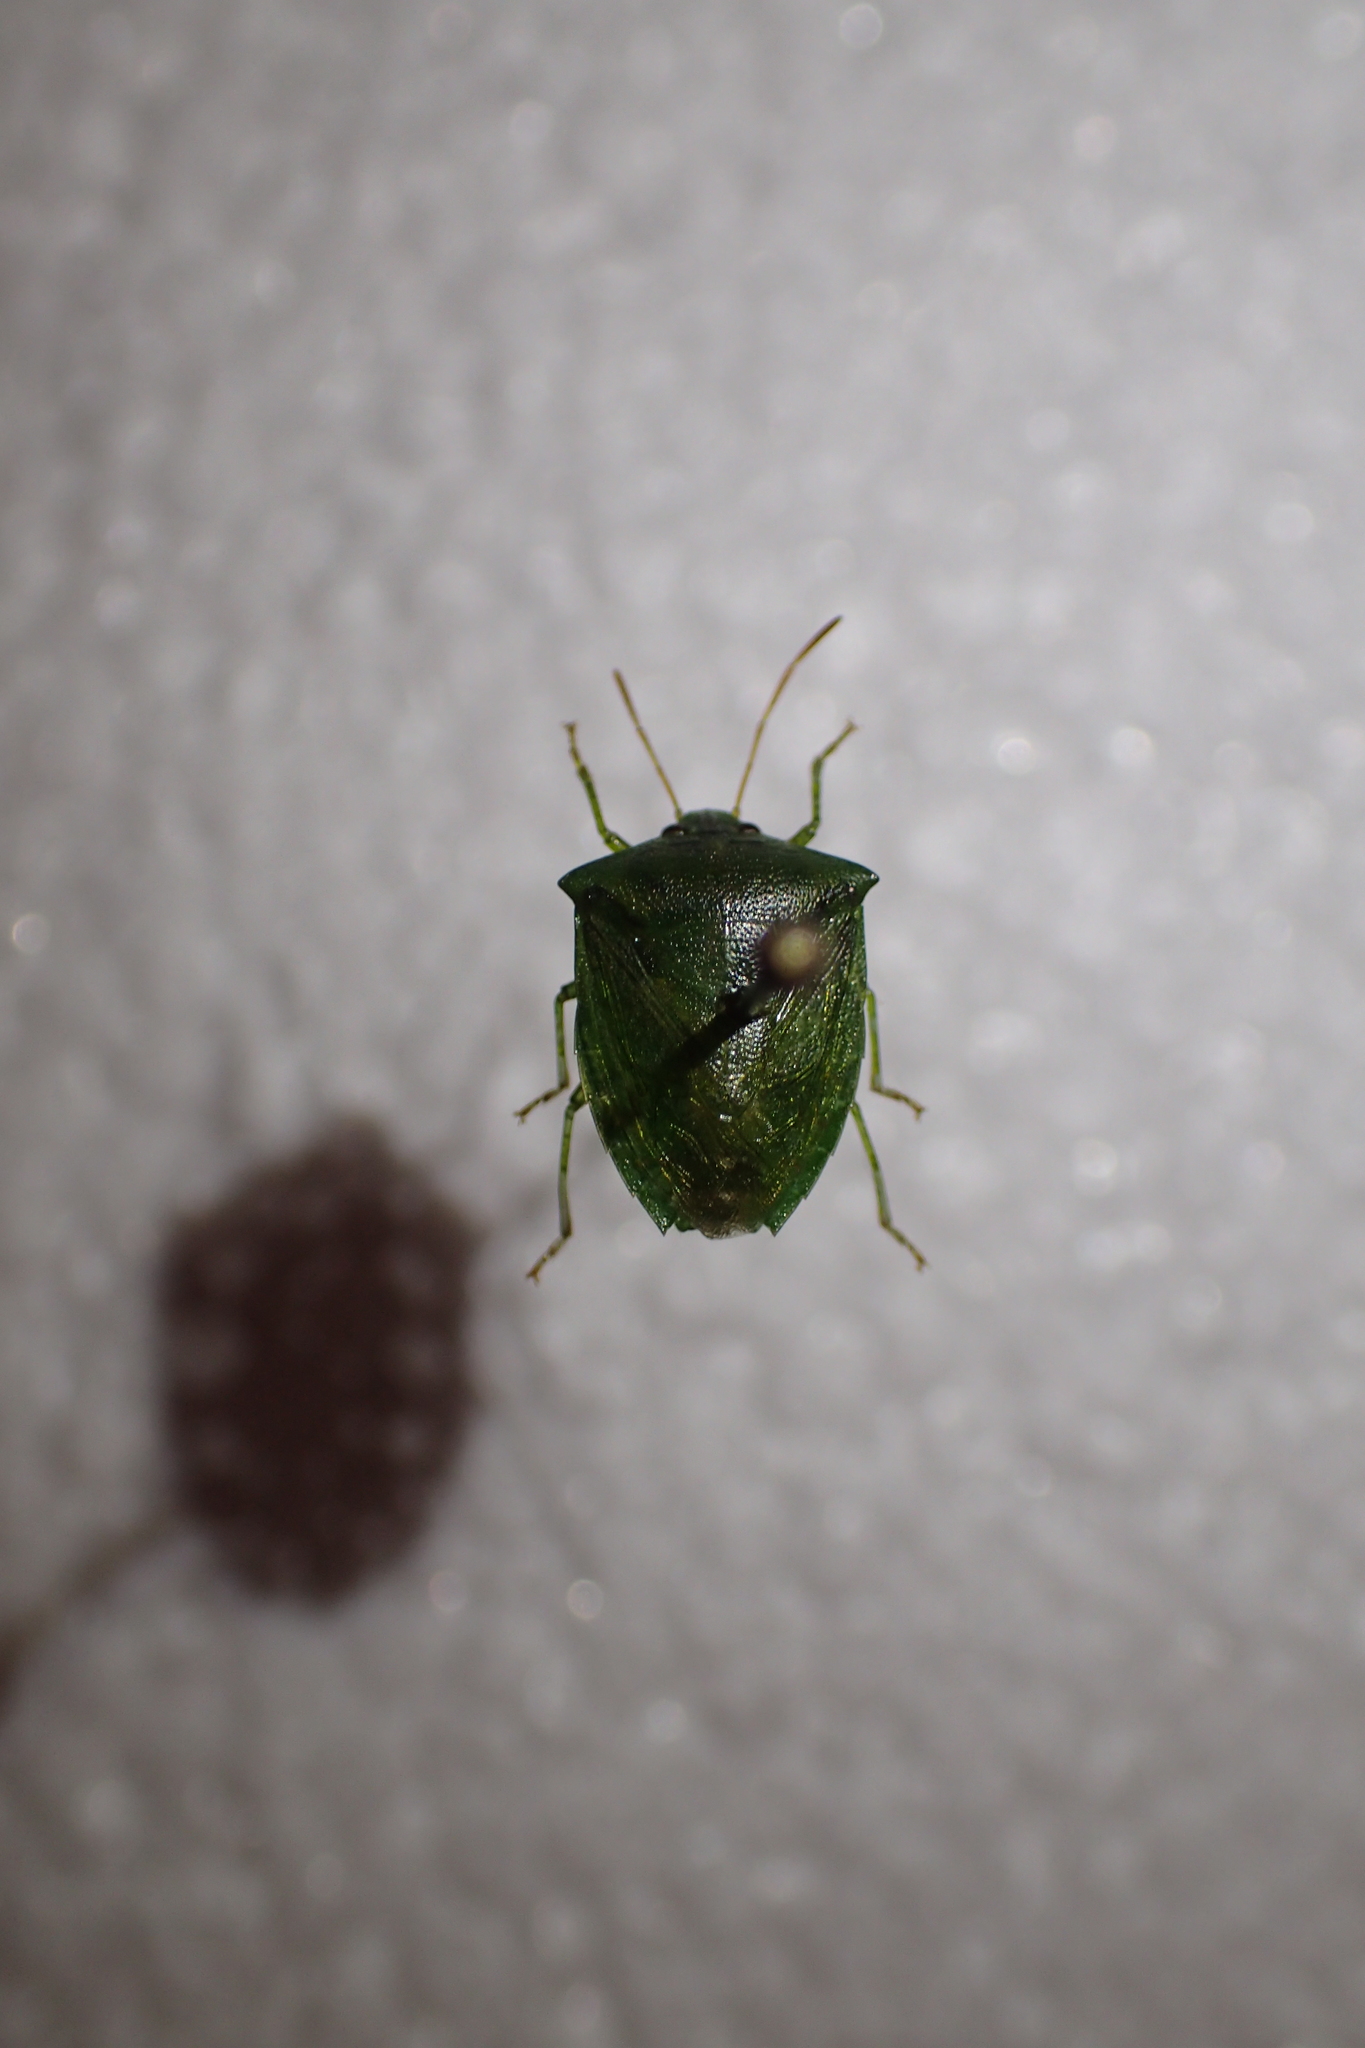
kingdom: Animalia
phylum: Arthropoda
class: Insecta
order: Hemiptera
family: Pentatomidae
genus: Cuspicona
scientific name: Cuspicona simplex
